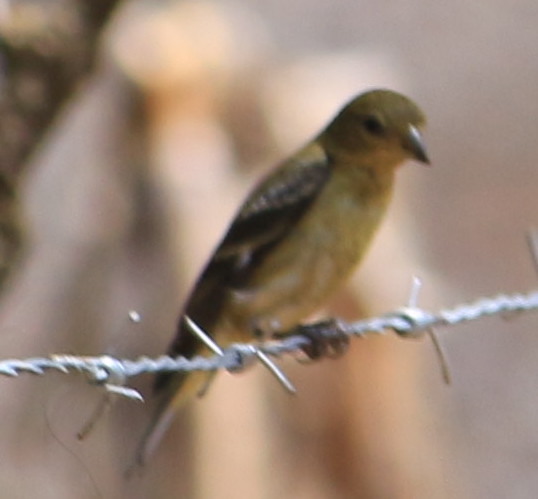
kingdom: Animalia
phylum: Chordata
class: Aves
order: Passeriformes
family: Fringillidae
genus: Spinus
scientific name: Spinus psaltria
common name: Lesser goldfinch
